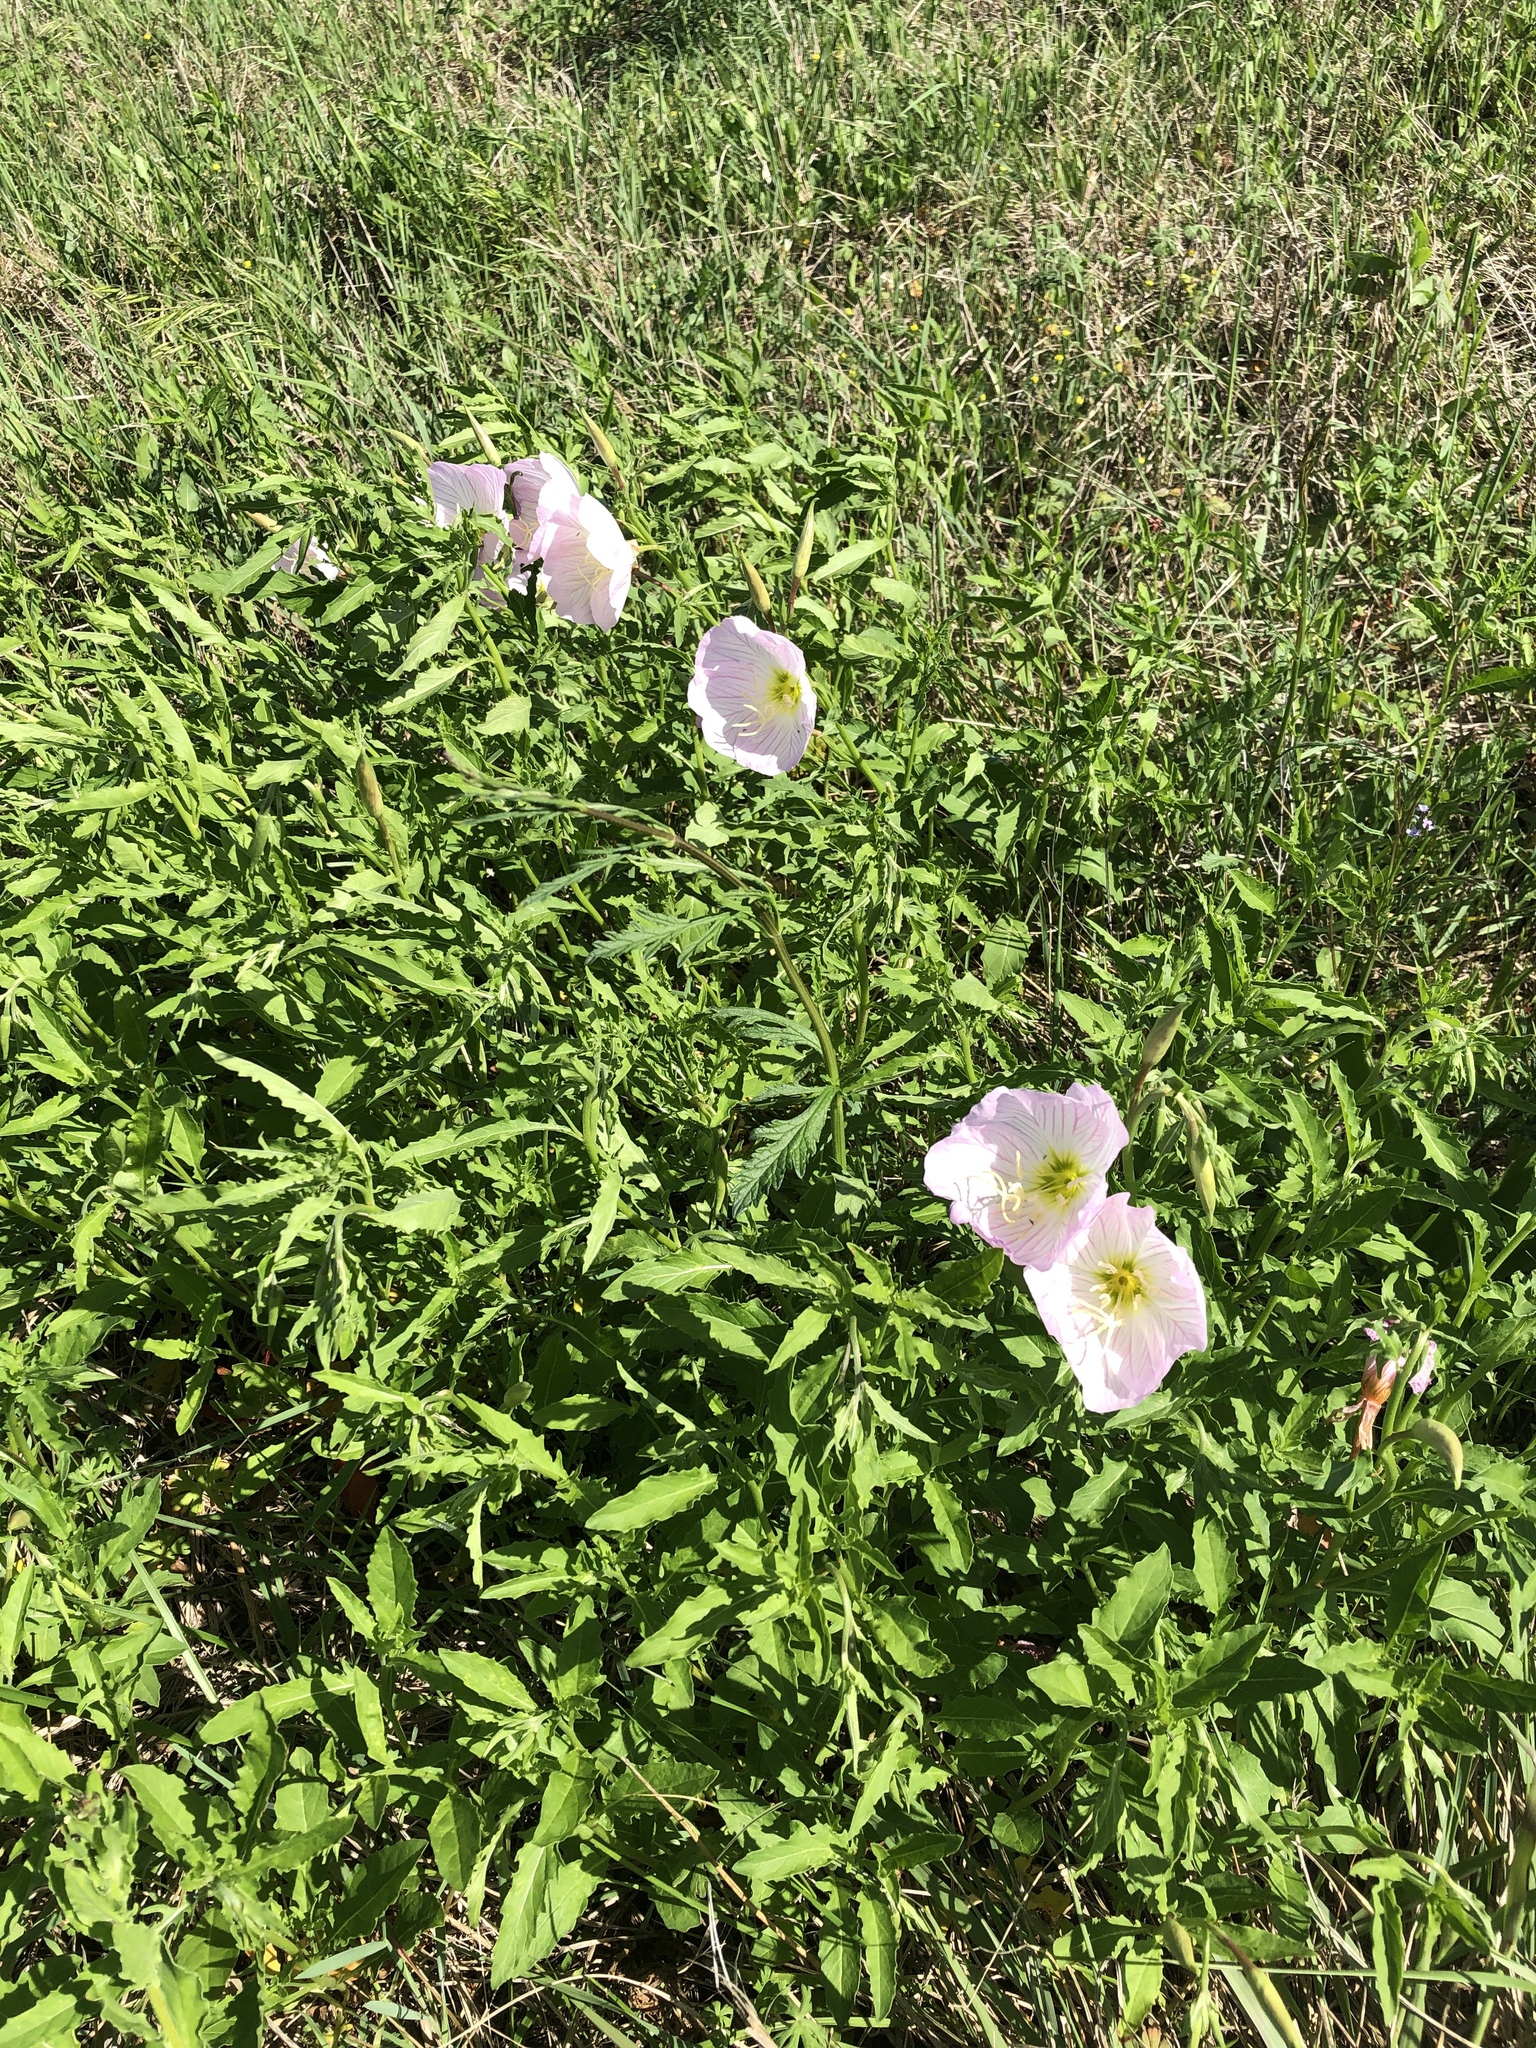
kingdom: Plantae
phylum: Tracheophyta
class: Magnoliopsida
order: Myrtales
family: Onagraceae
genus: Oenothera
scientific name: Oenothera speciosa
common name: White evening-primrose
